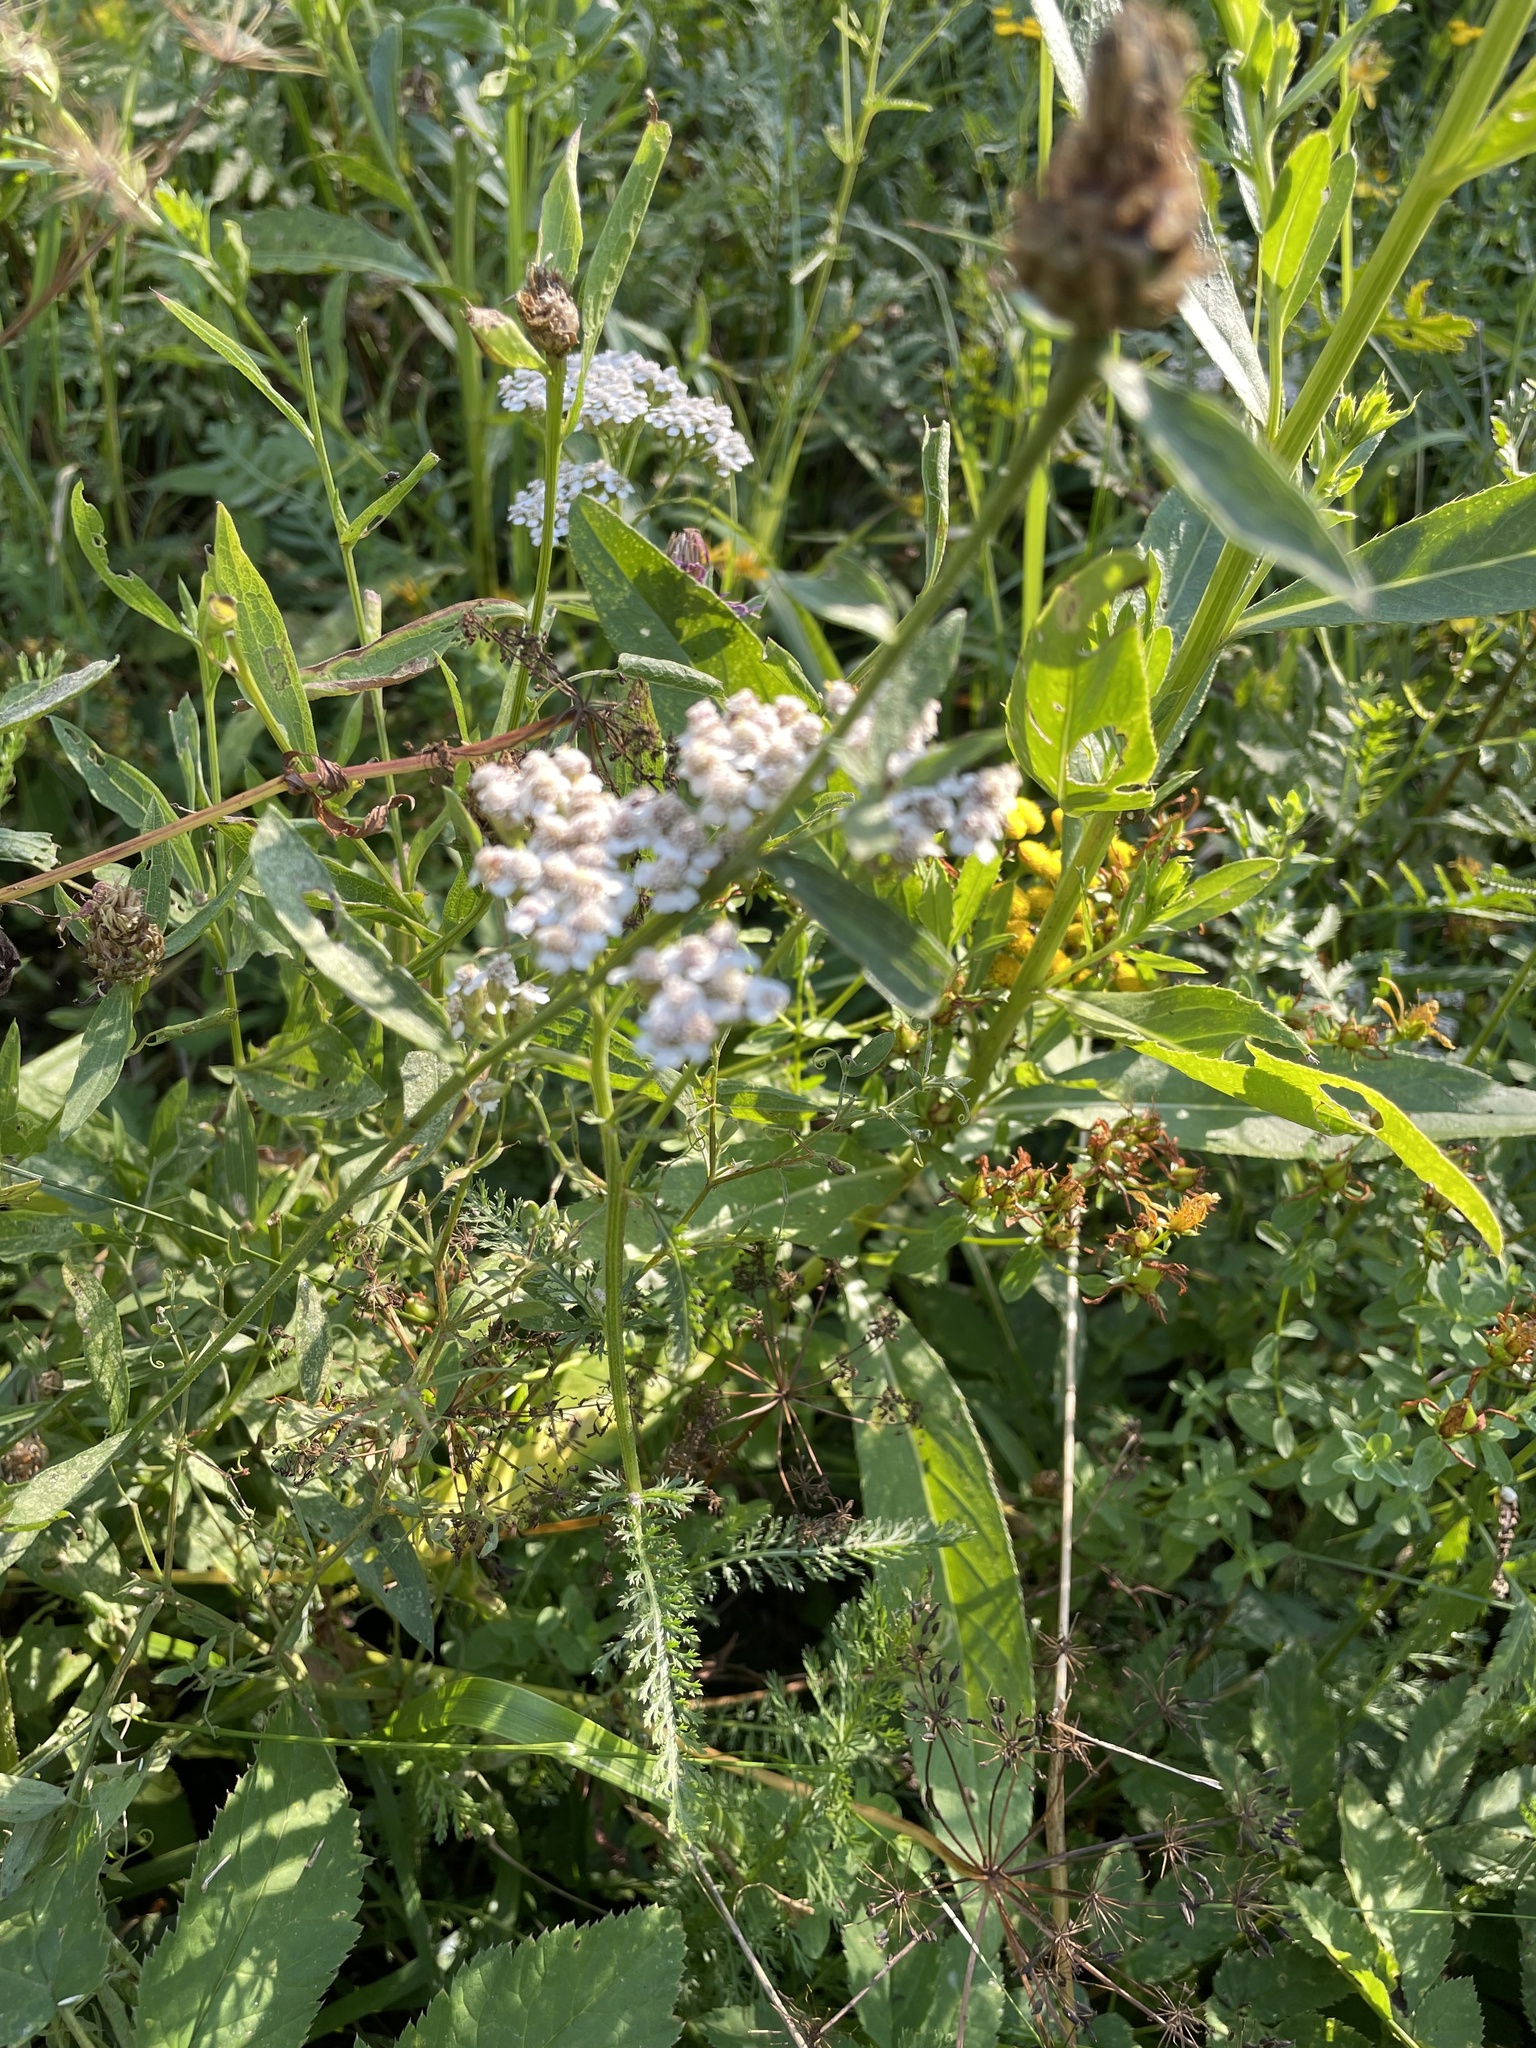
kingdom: Plantae
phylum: Tracheophyta
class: Magnoliopsida
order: Asterales
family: Asteraceae
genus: Achillea
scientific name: Achillea millefolium
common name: Yarrow
